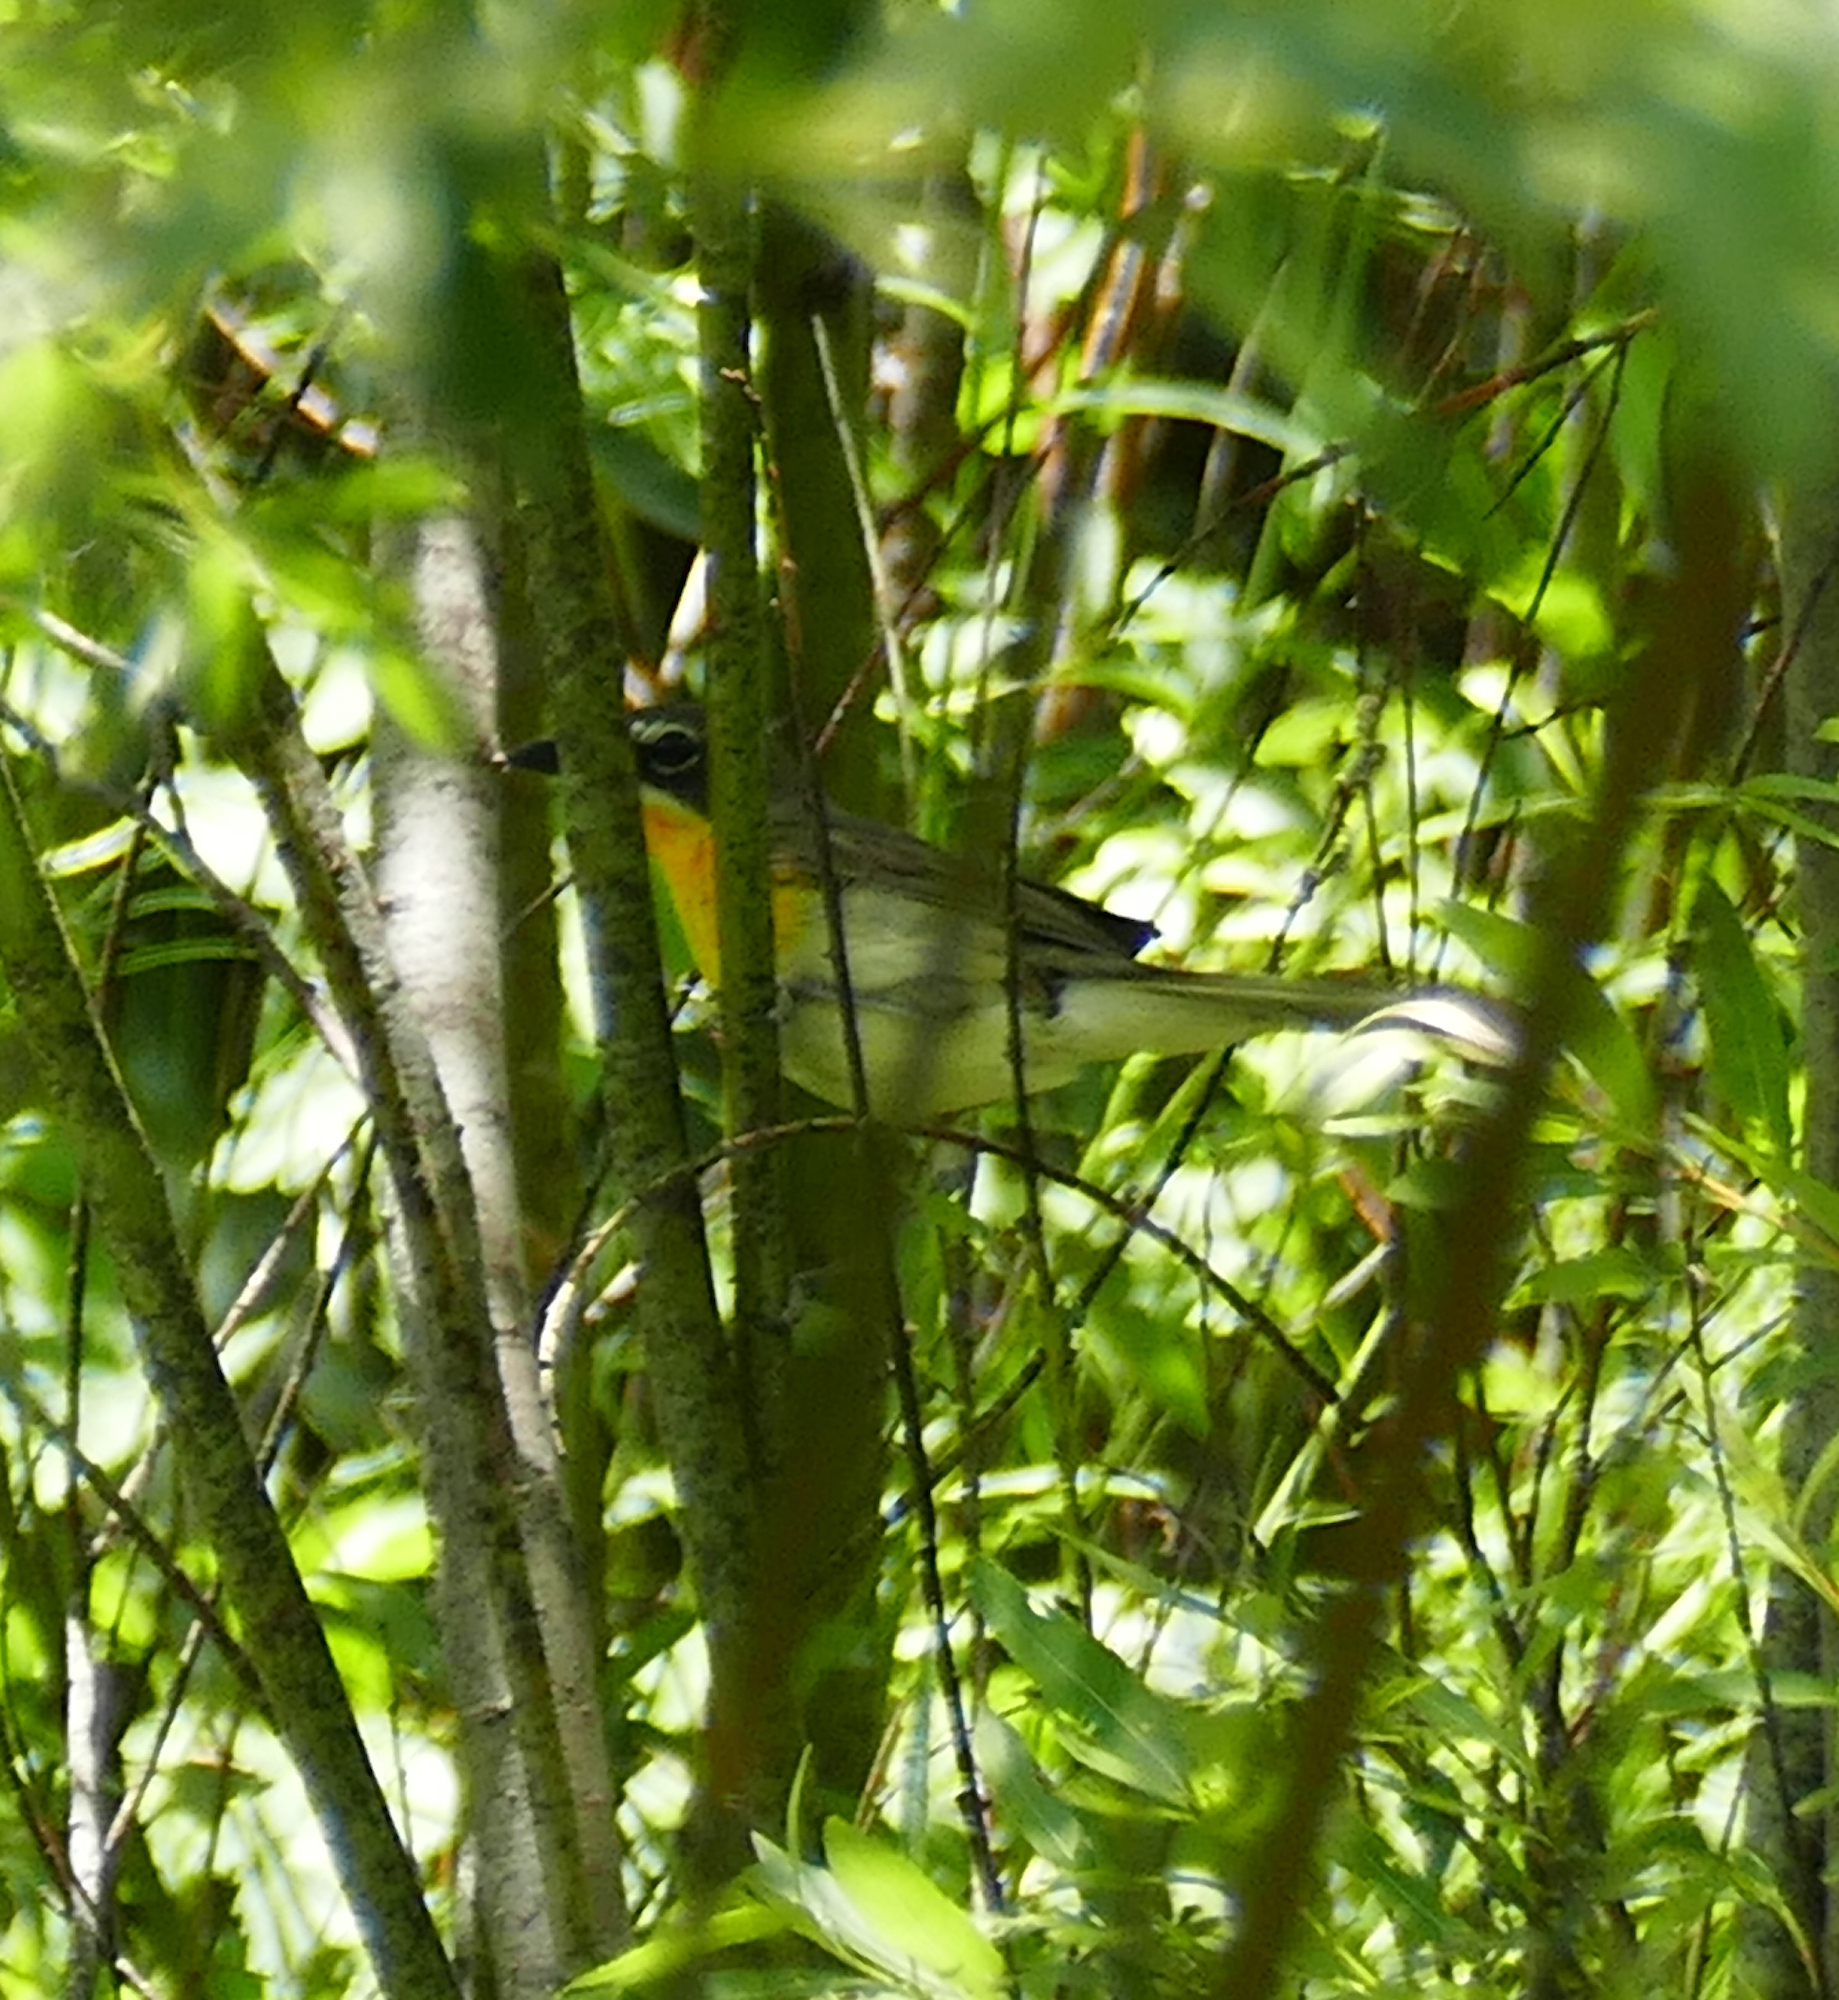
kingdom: Animalia
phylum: Chordata
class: Aves
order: Passeriformes
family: Parulidae
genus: Icteria
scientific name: Icteria virens
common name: Yellow-breasted chat
